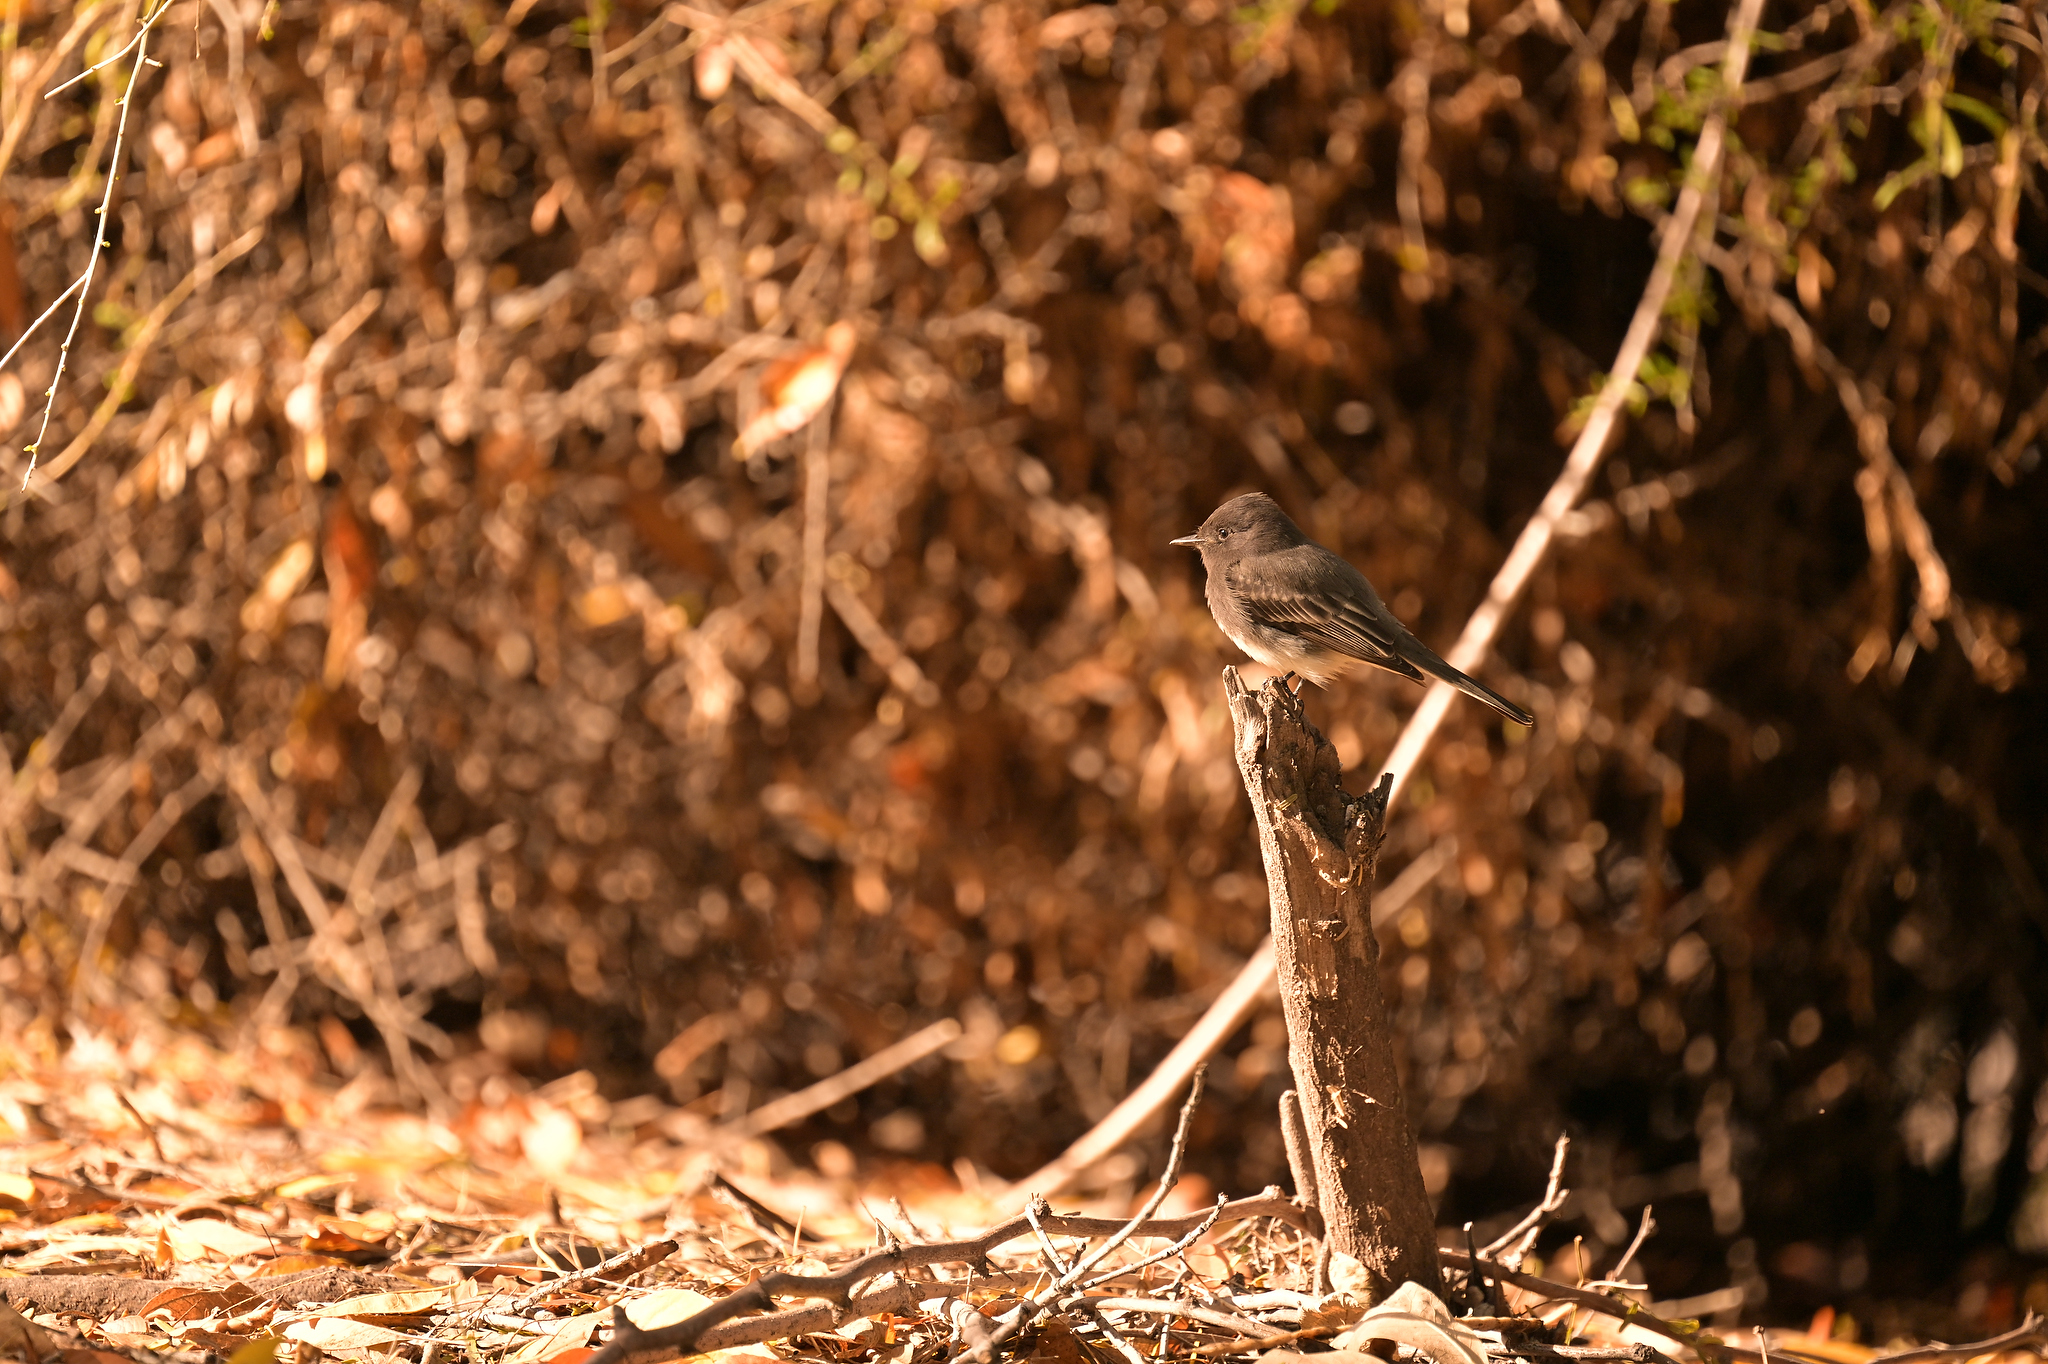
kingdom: Animalia
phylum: Chordata
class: Aves
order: Passeriformes
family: Tyrannidae
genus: Sayornis
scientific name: Sayornis nigricans
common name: Black phoebe
